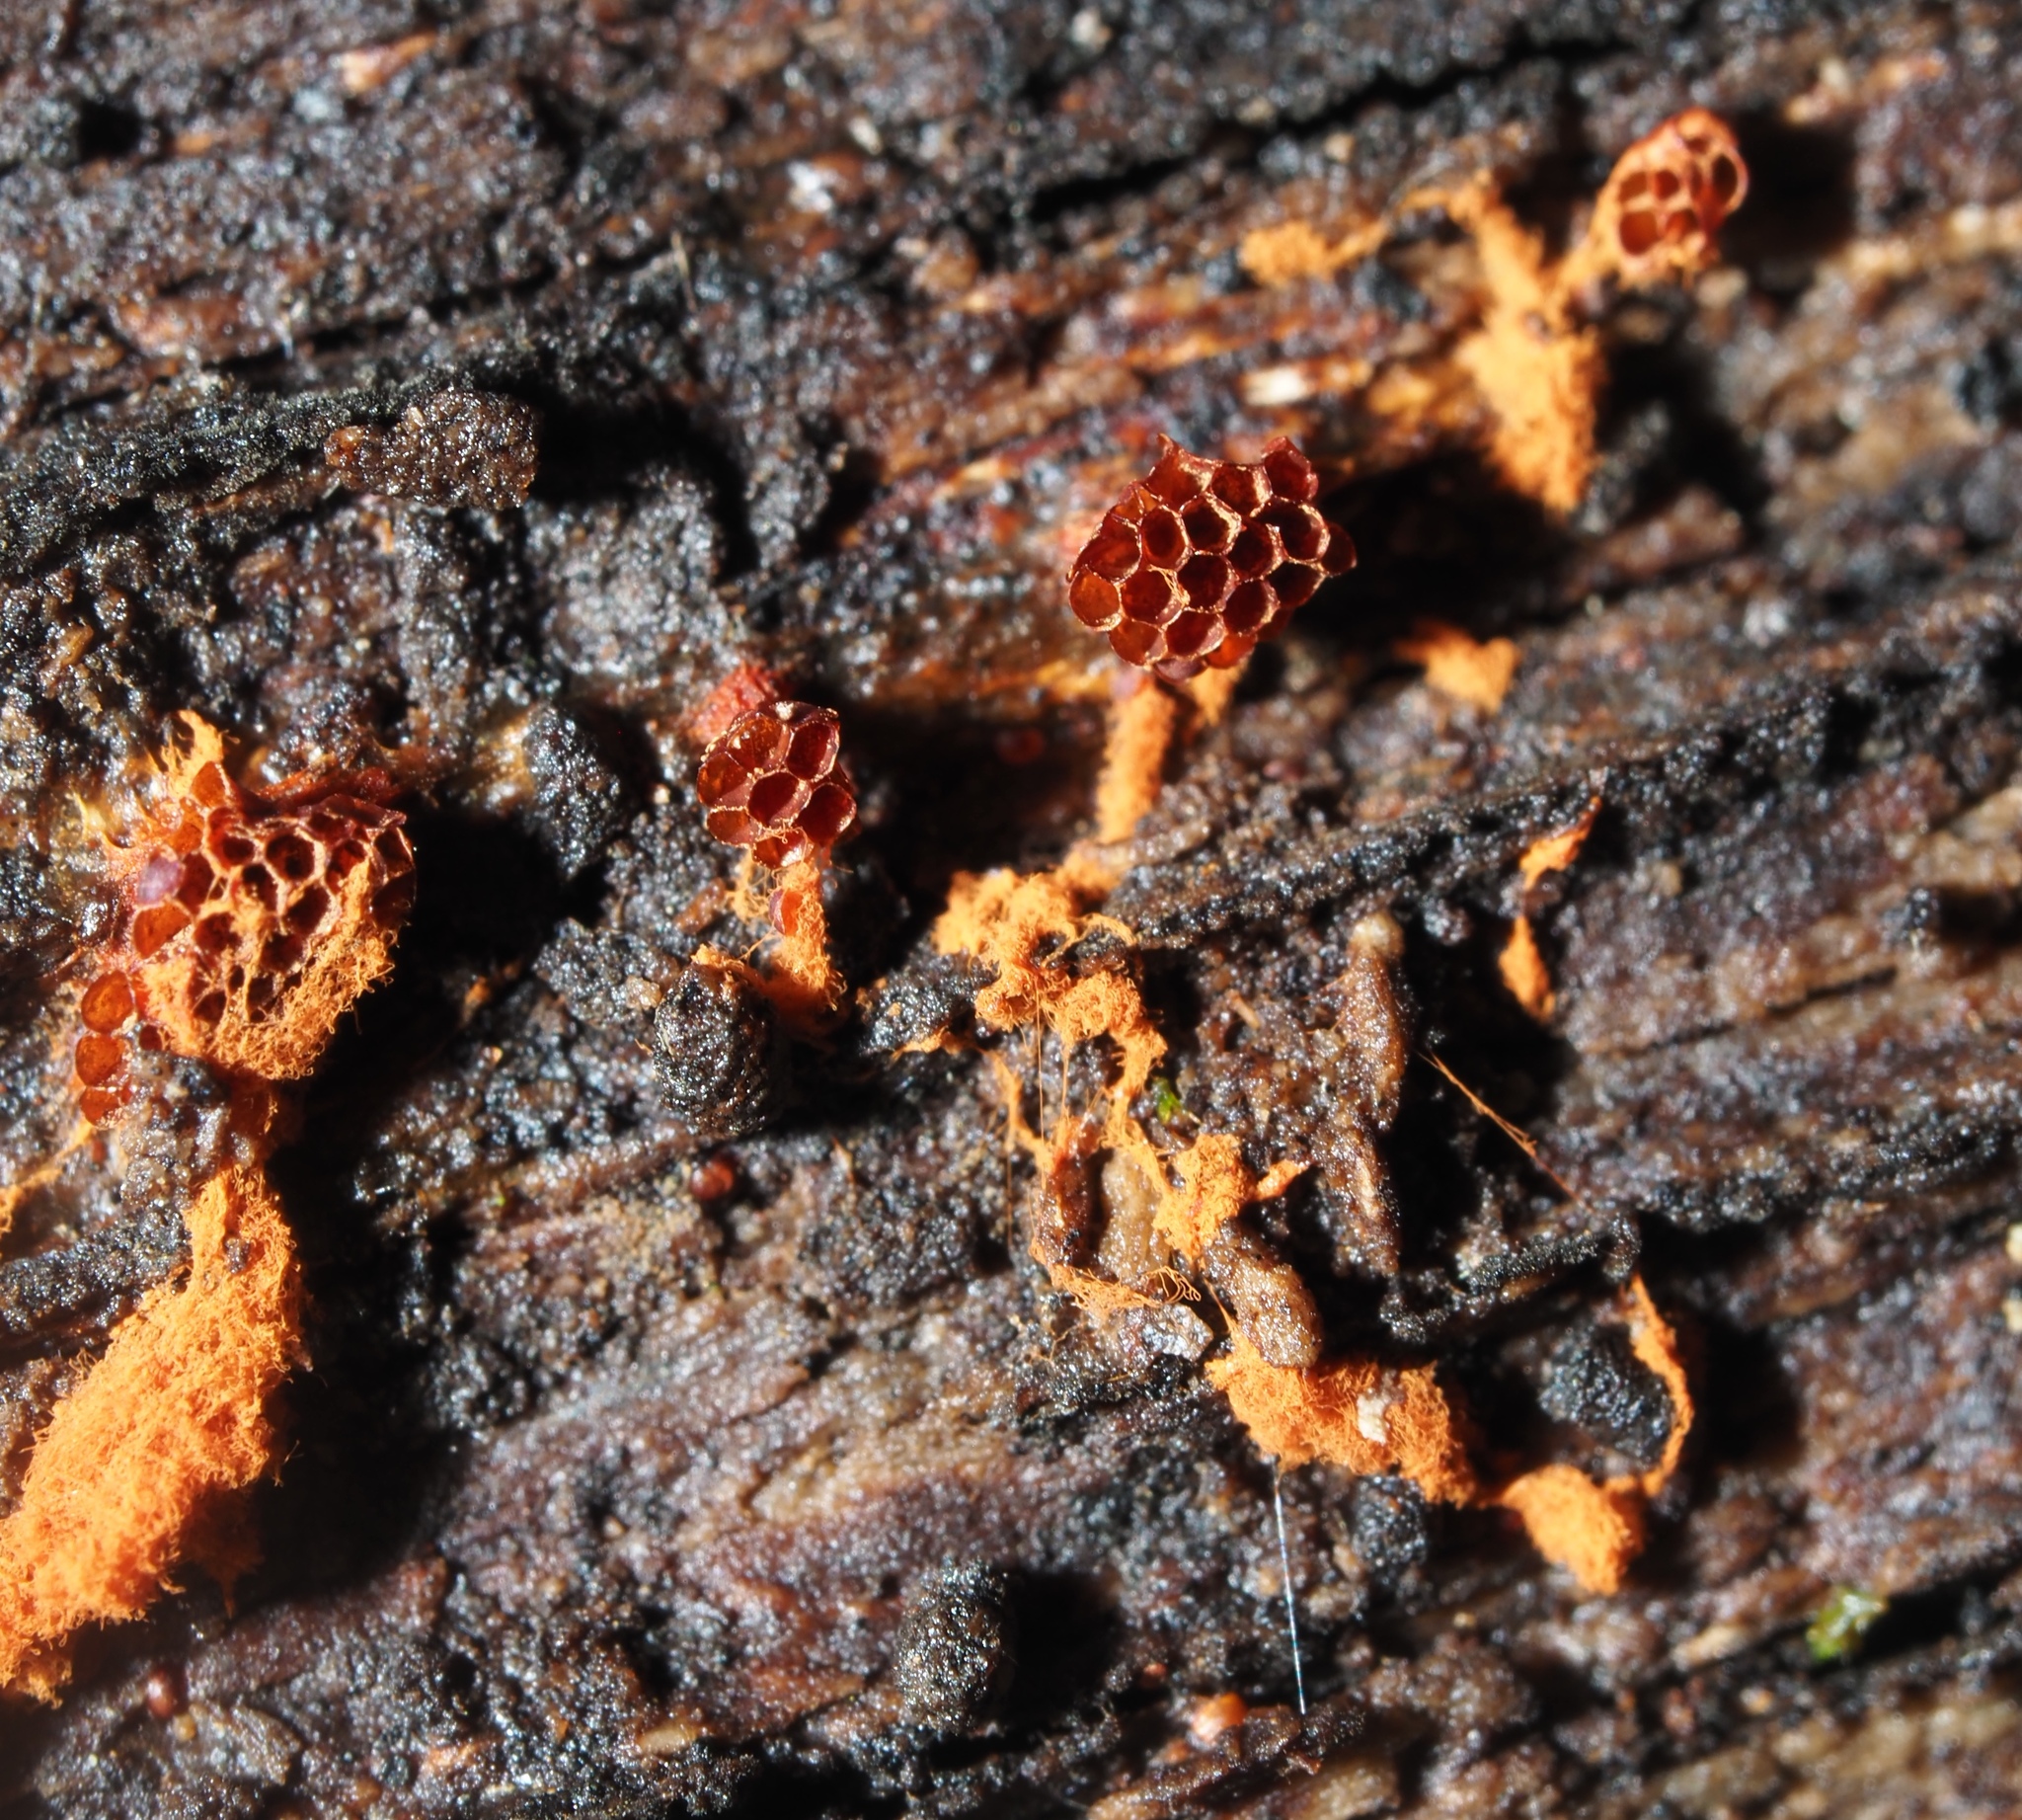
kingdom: Protozoa
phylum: Mycetozoa
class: Myxomycetes
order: Trichiales
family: Trichiaceae
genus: Metatrichia
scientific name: Metatrichia vesparia
